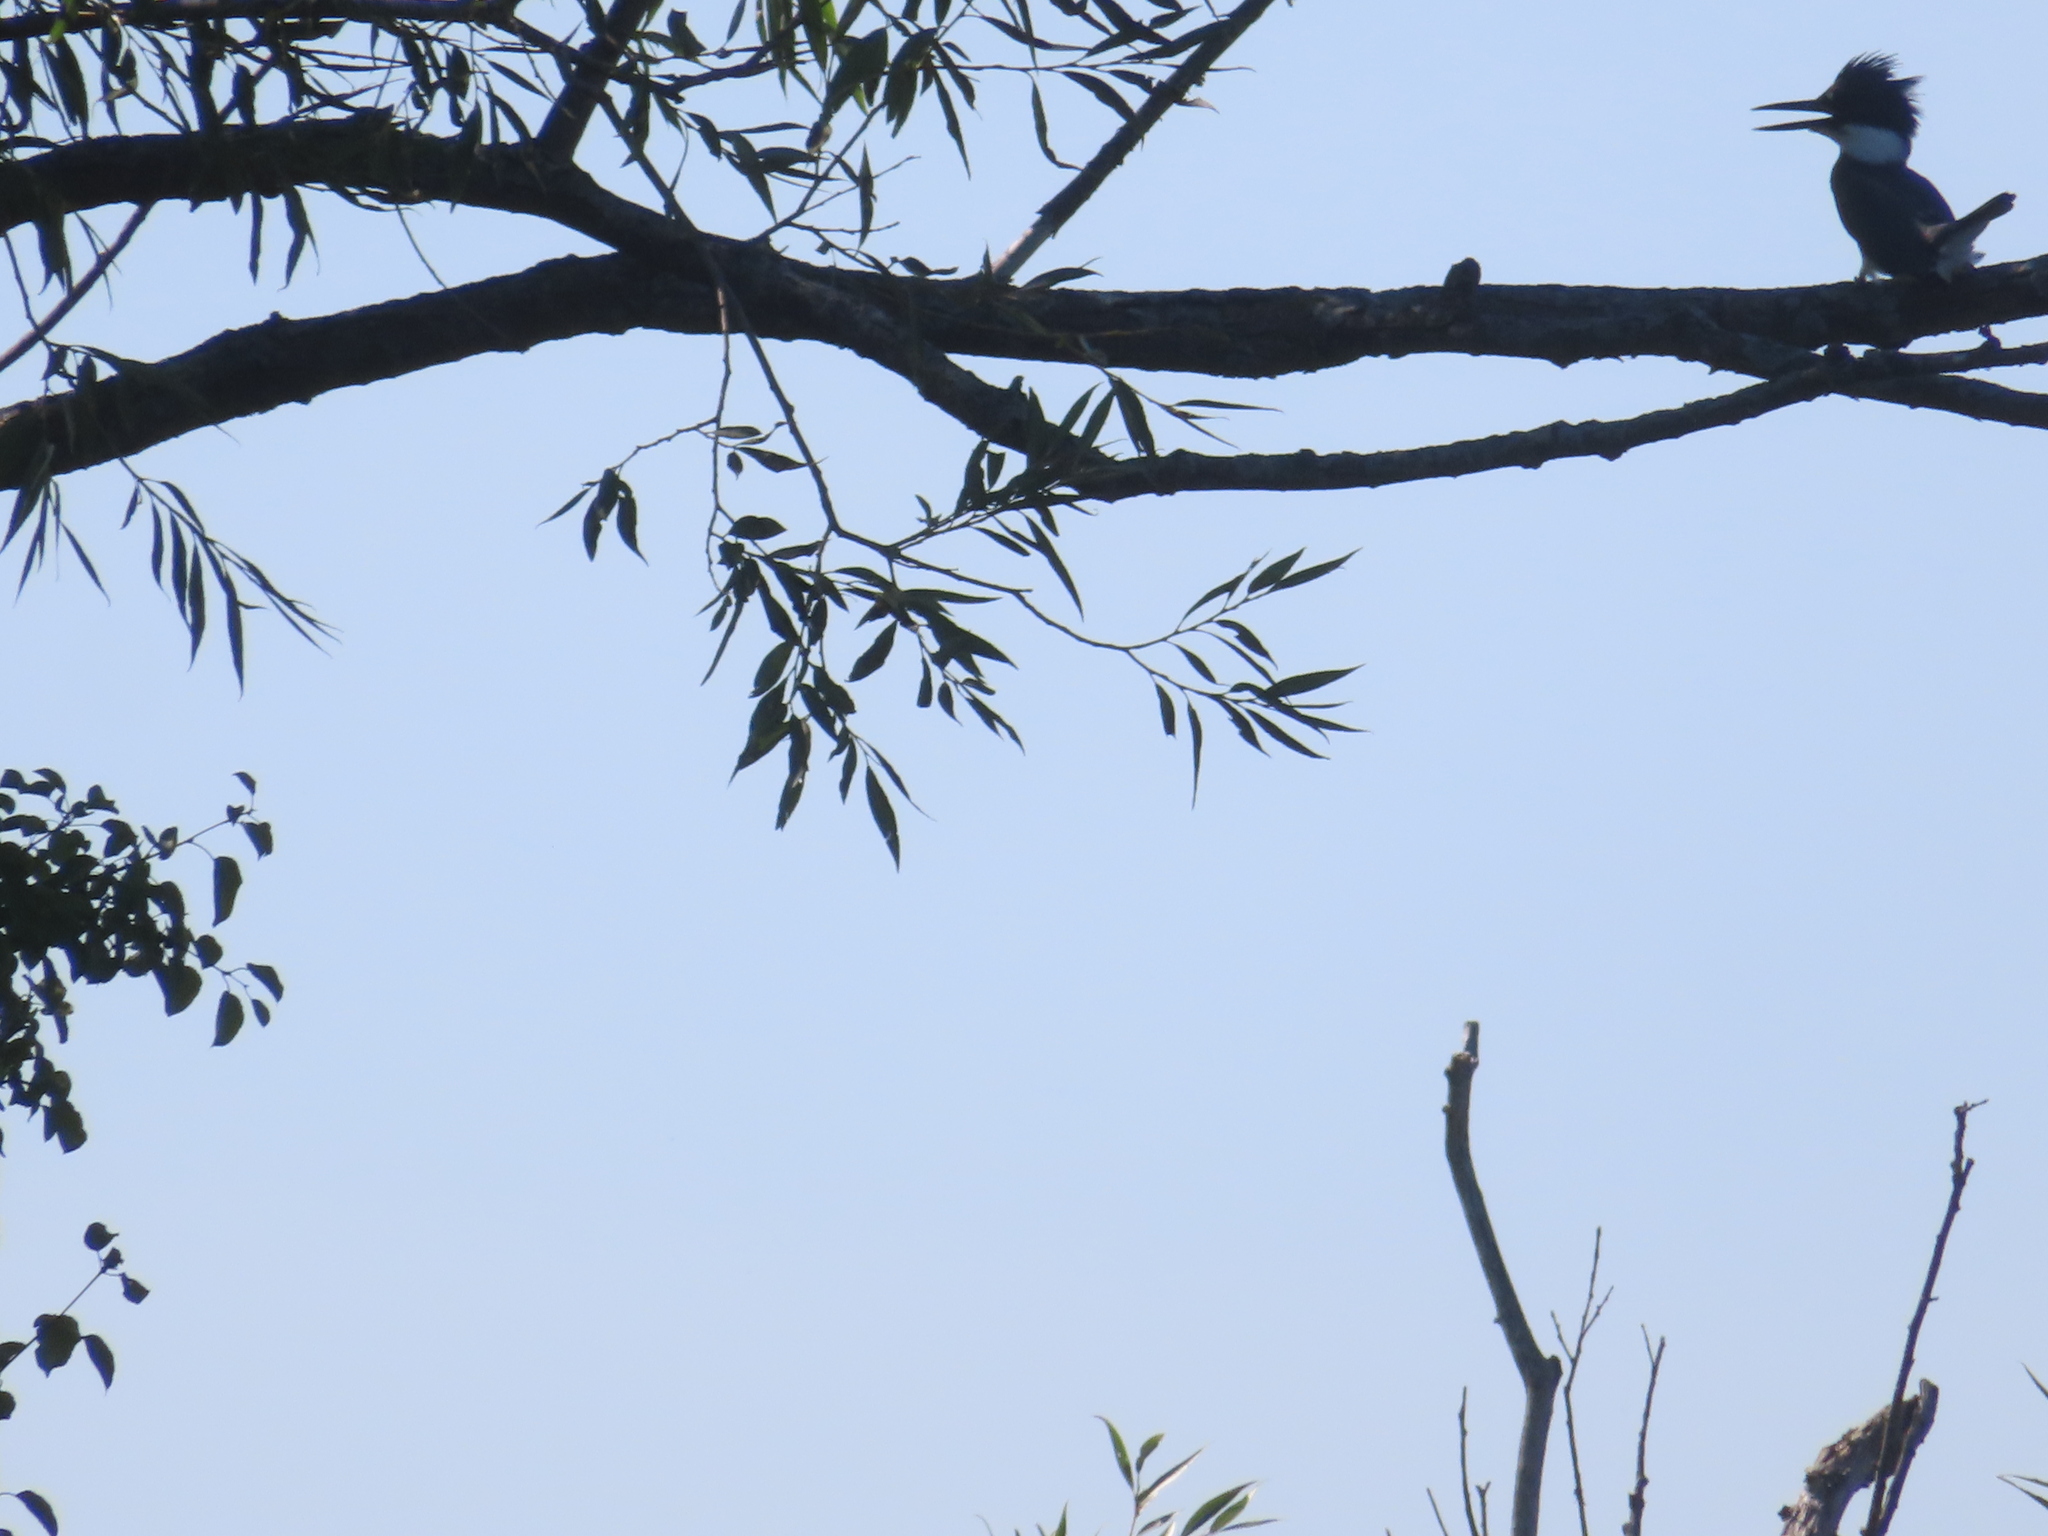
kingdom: Animalia
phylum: Chordata
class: Aves
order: Coraciiformes
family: Alcedinidae
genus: Megaceryle
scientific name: Megaceryle alcyon
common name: Belted kingfisher
